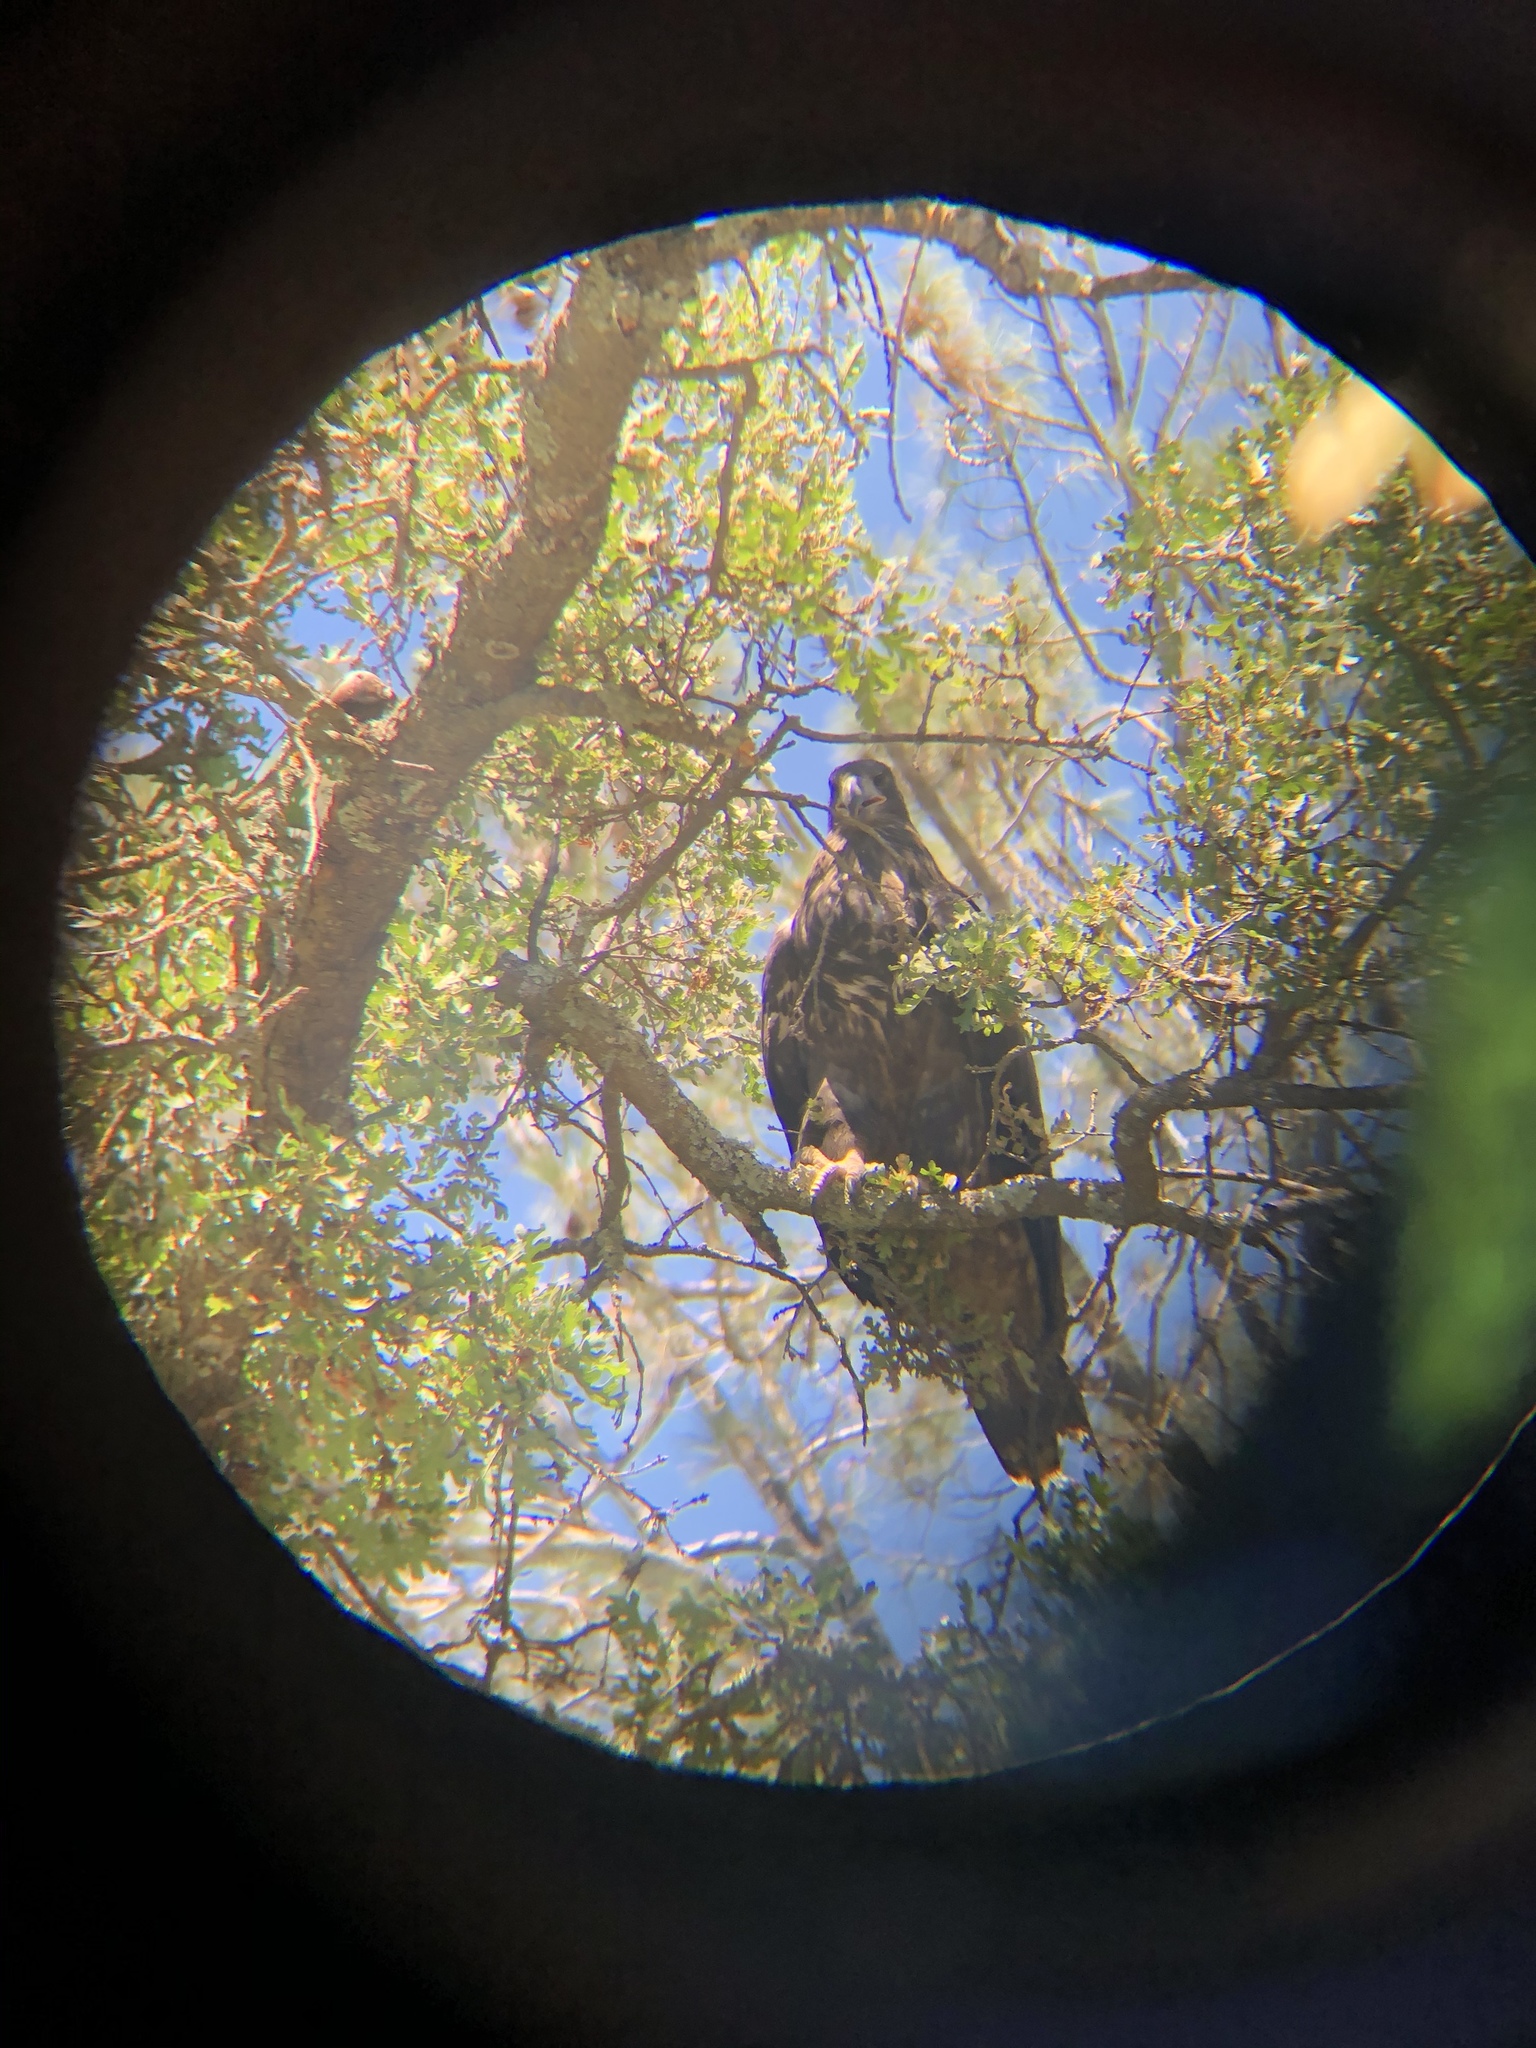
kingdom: Animalia
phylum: Chordata
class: Aves
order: Accipitriformes
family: Accipitridae
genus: Haliaeetus
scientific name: Haliaeetus leucocephalus
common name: Bald eagle
